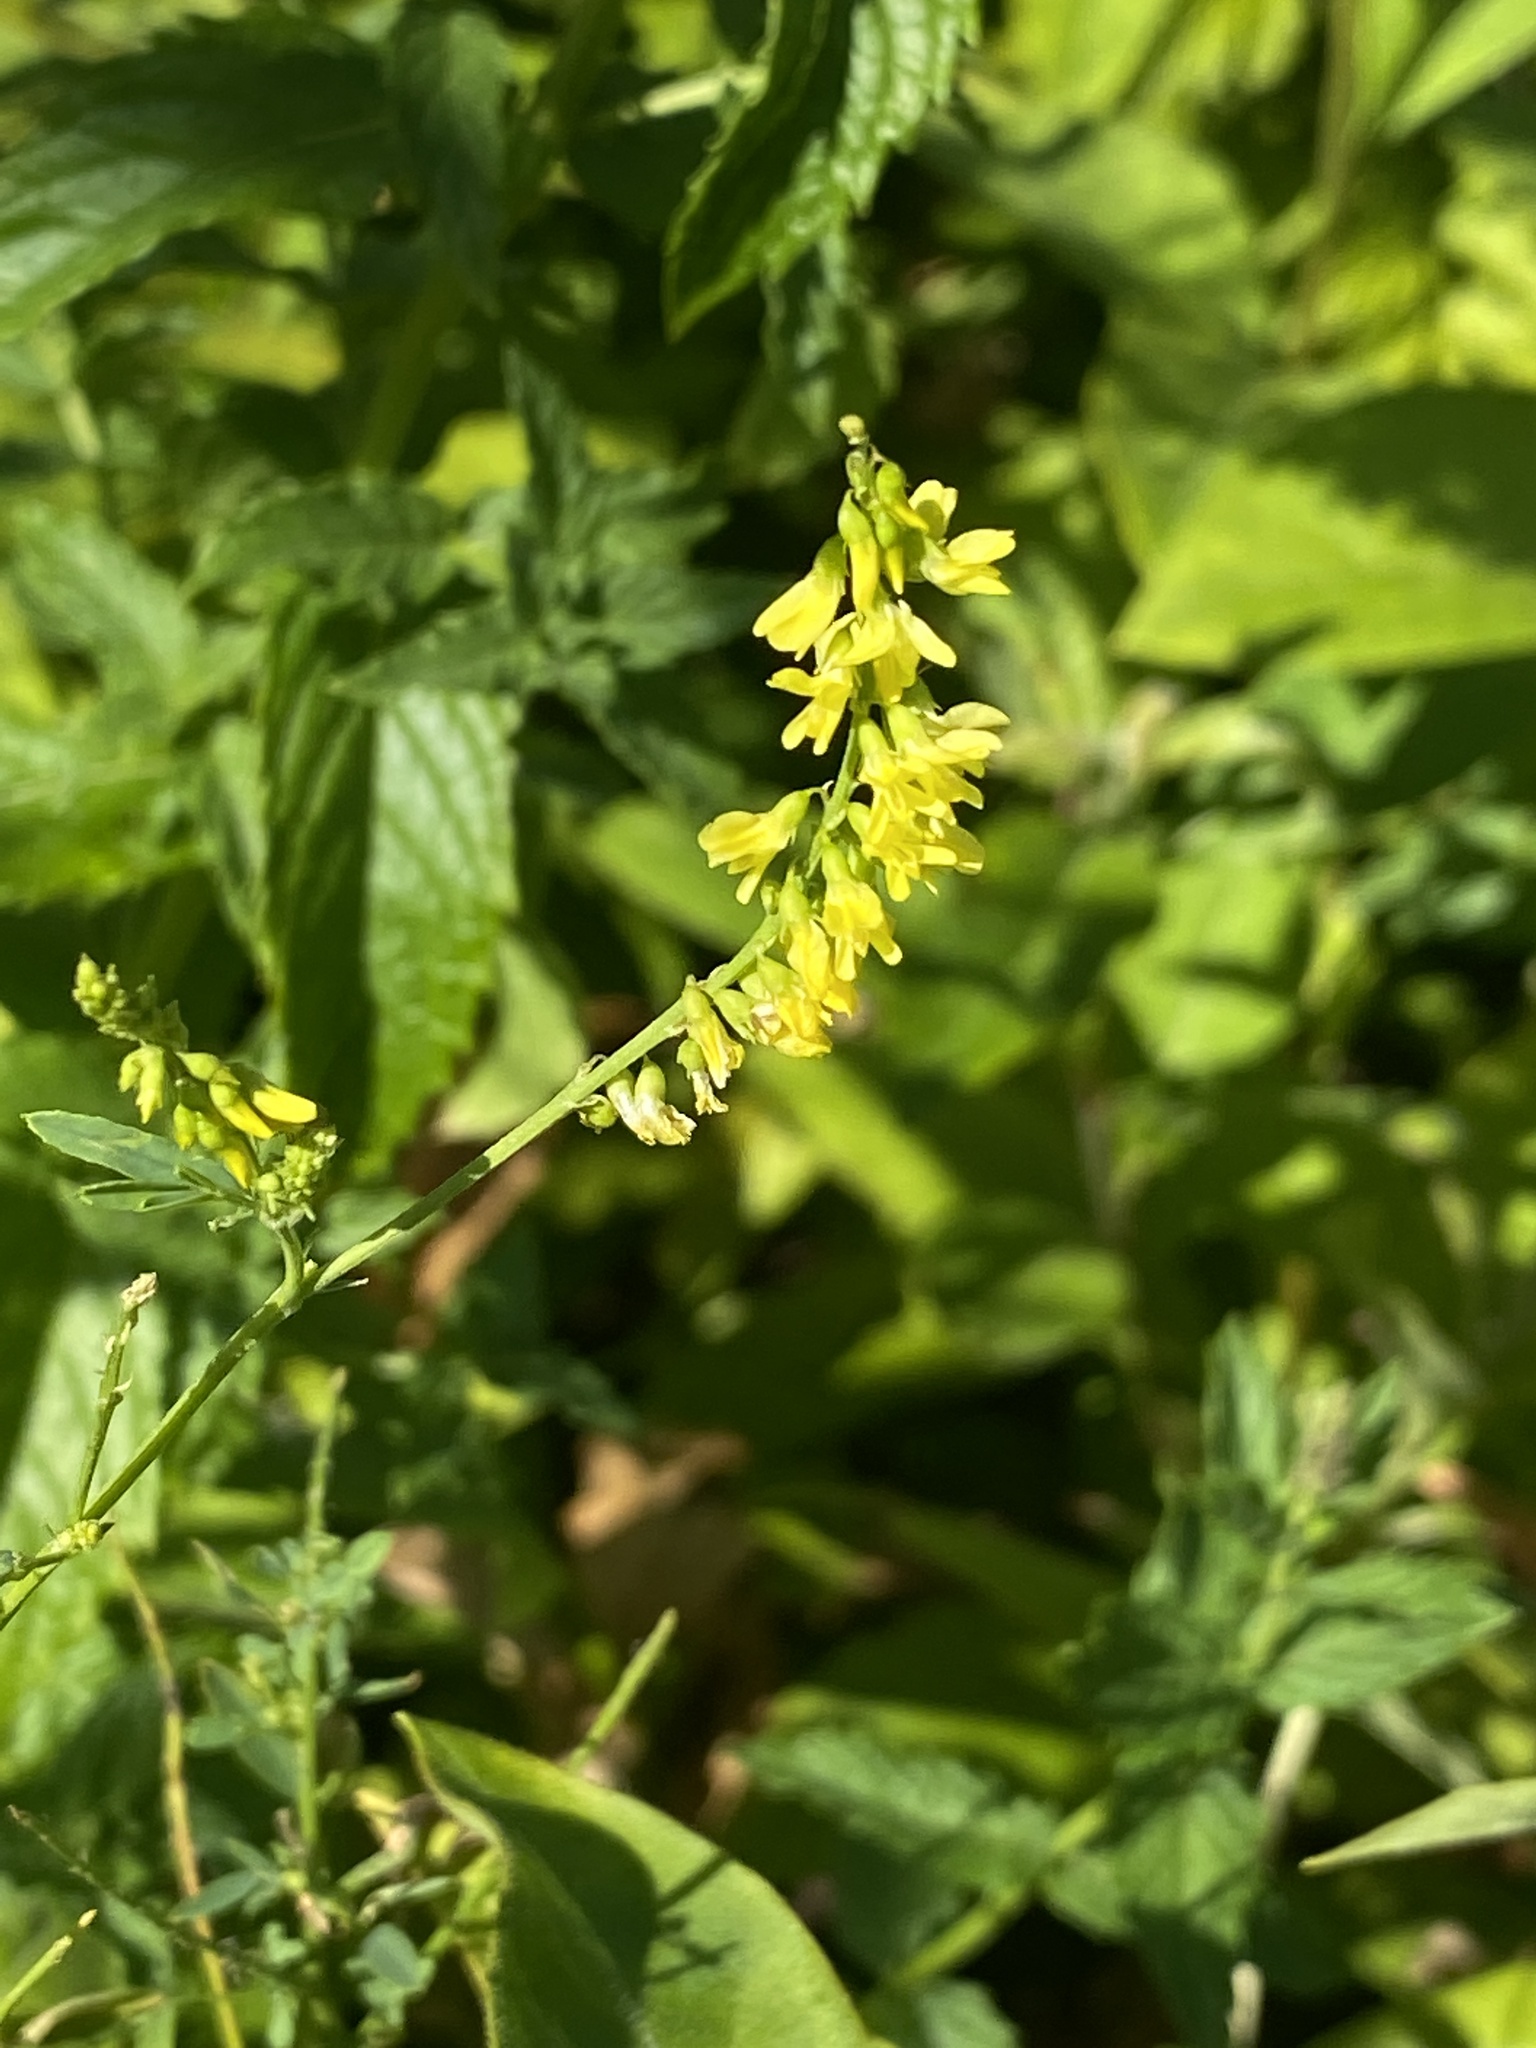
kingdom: Plantae
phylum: Tracheophyta
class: Magnoliopsida
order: Fabales
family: Fabaceae
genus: Melilotus
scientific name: Melilotus officinalis
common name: Sweetclover
